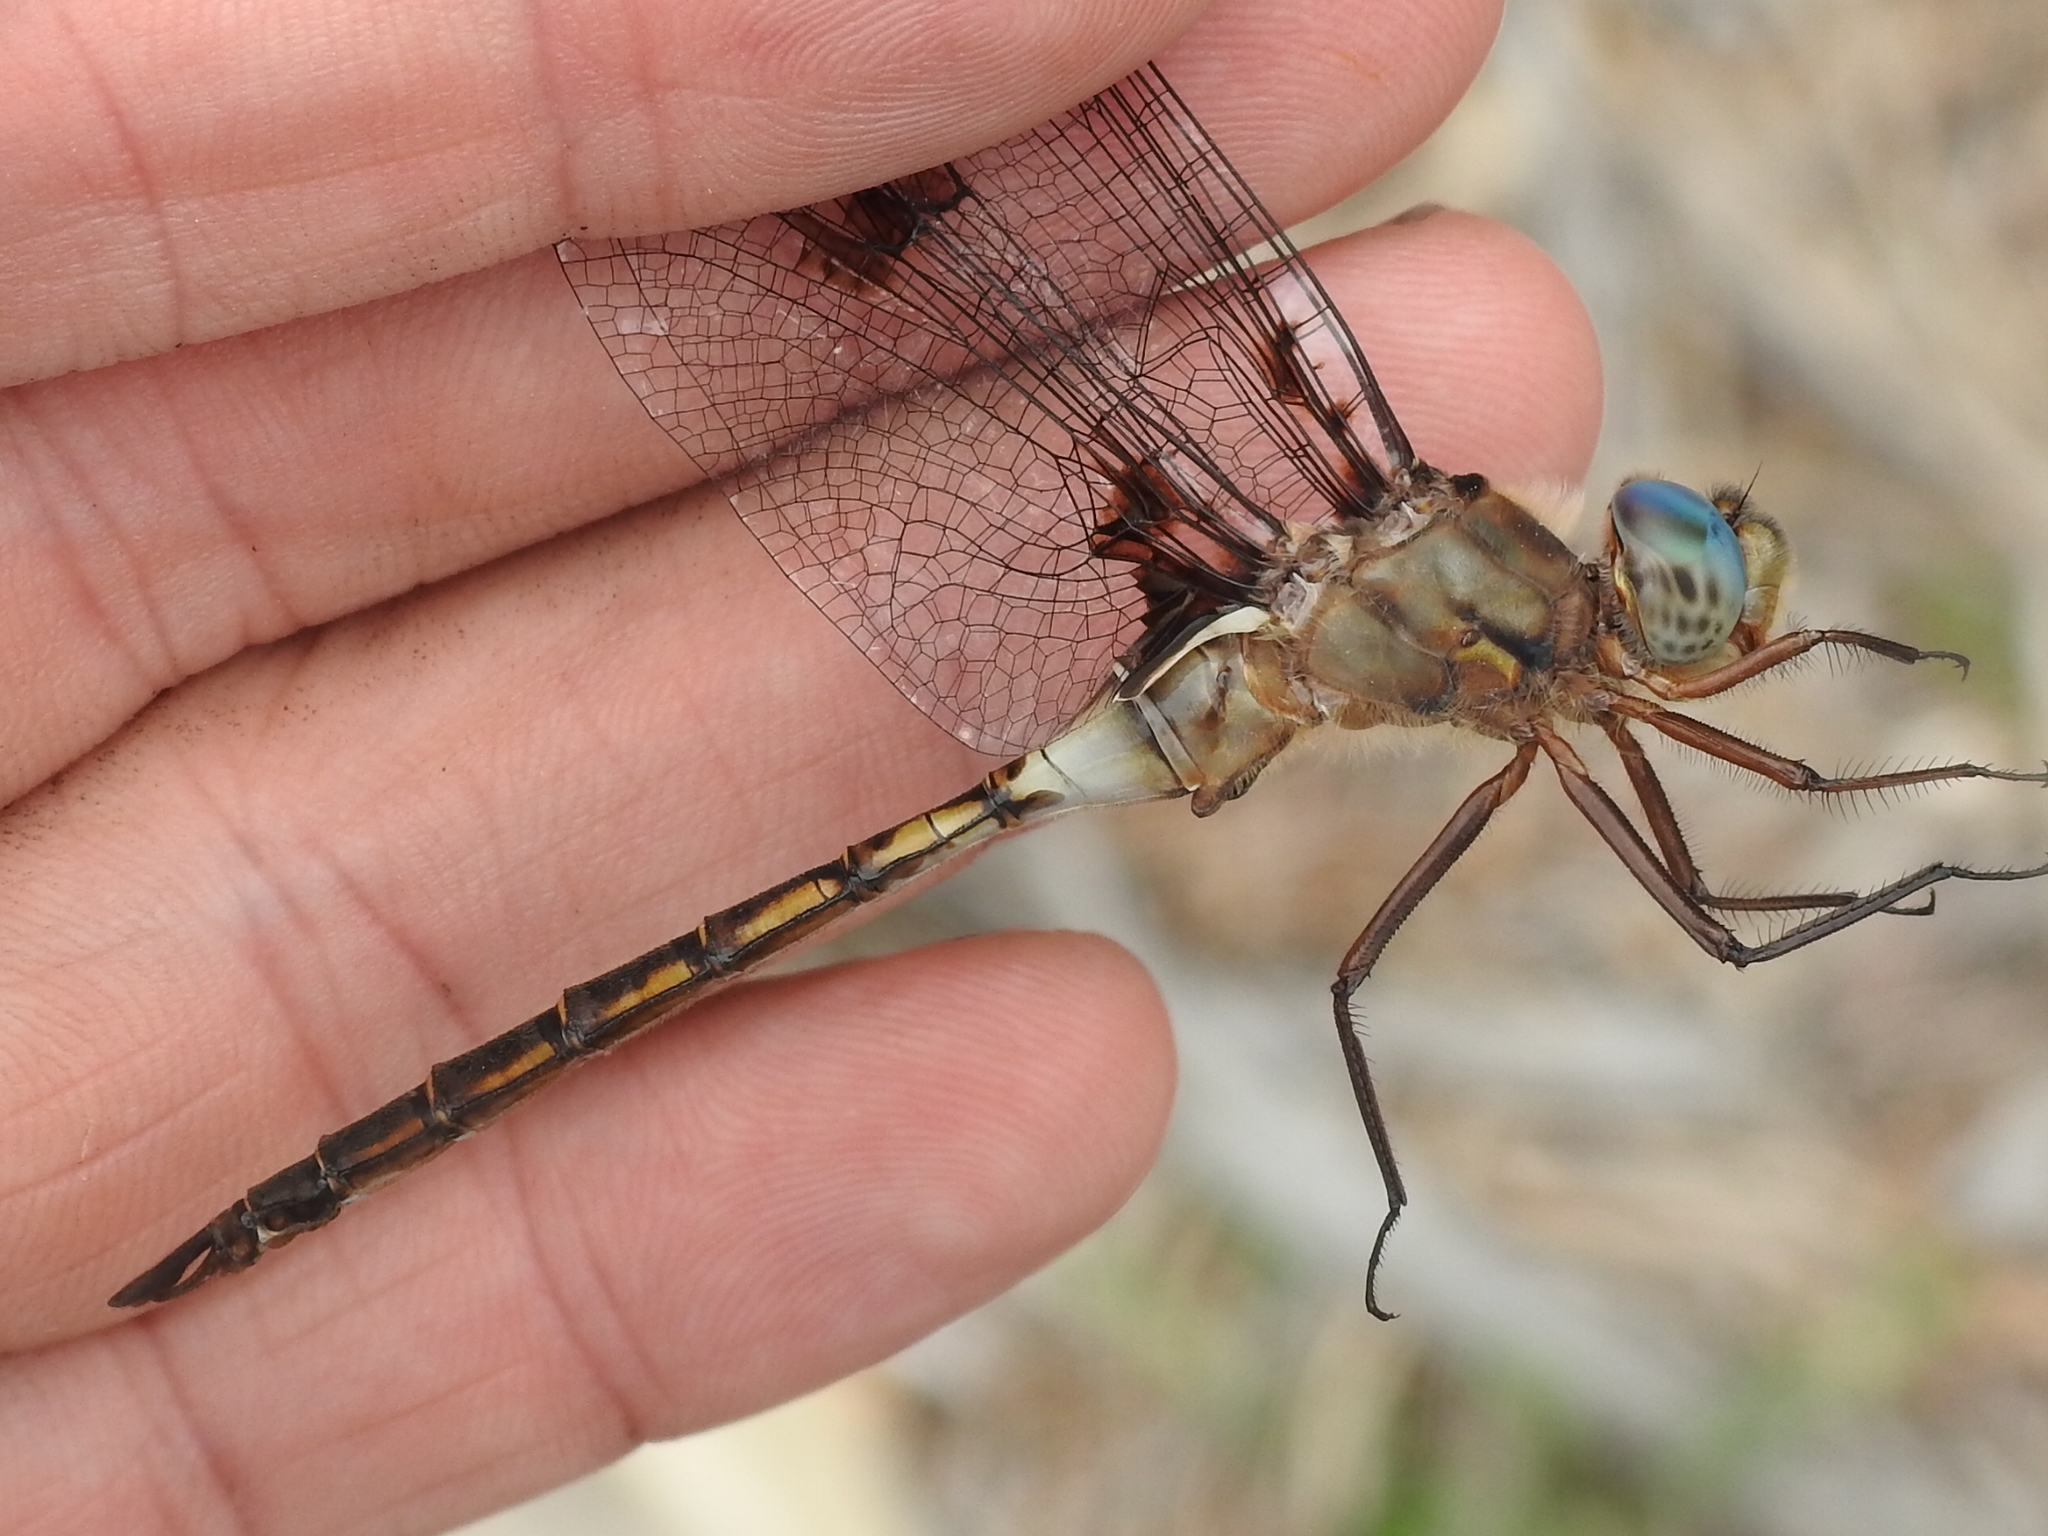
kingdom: Animalia
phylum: Arthropoda
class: Insecta
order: Odonata
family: Corduliidae
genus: Epitheca
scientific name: Epitheca princeps
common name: Prince baskettail
